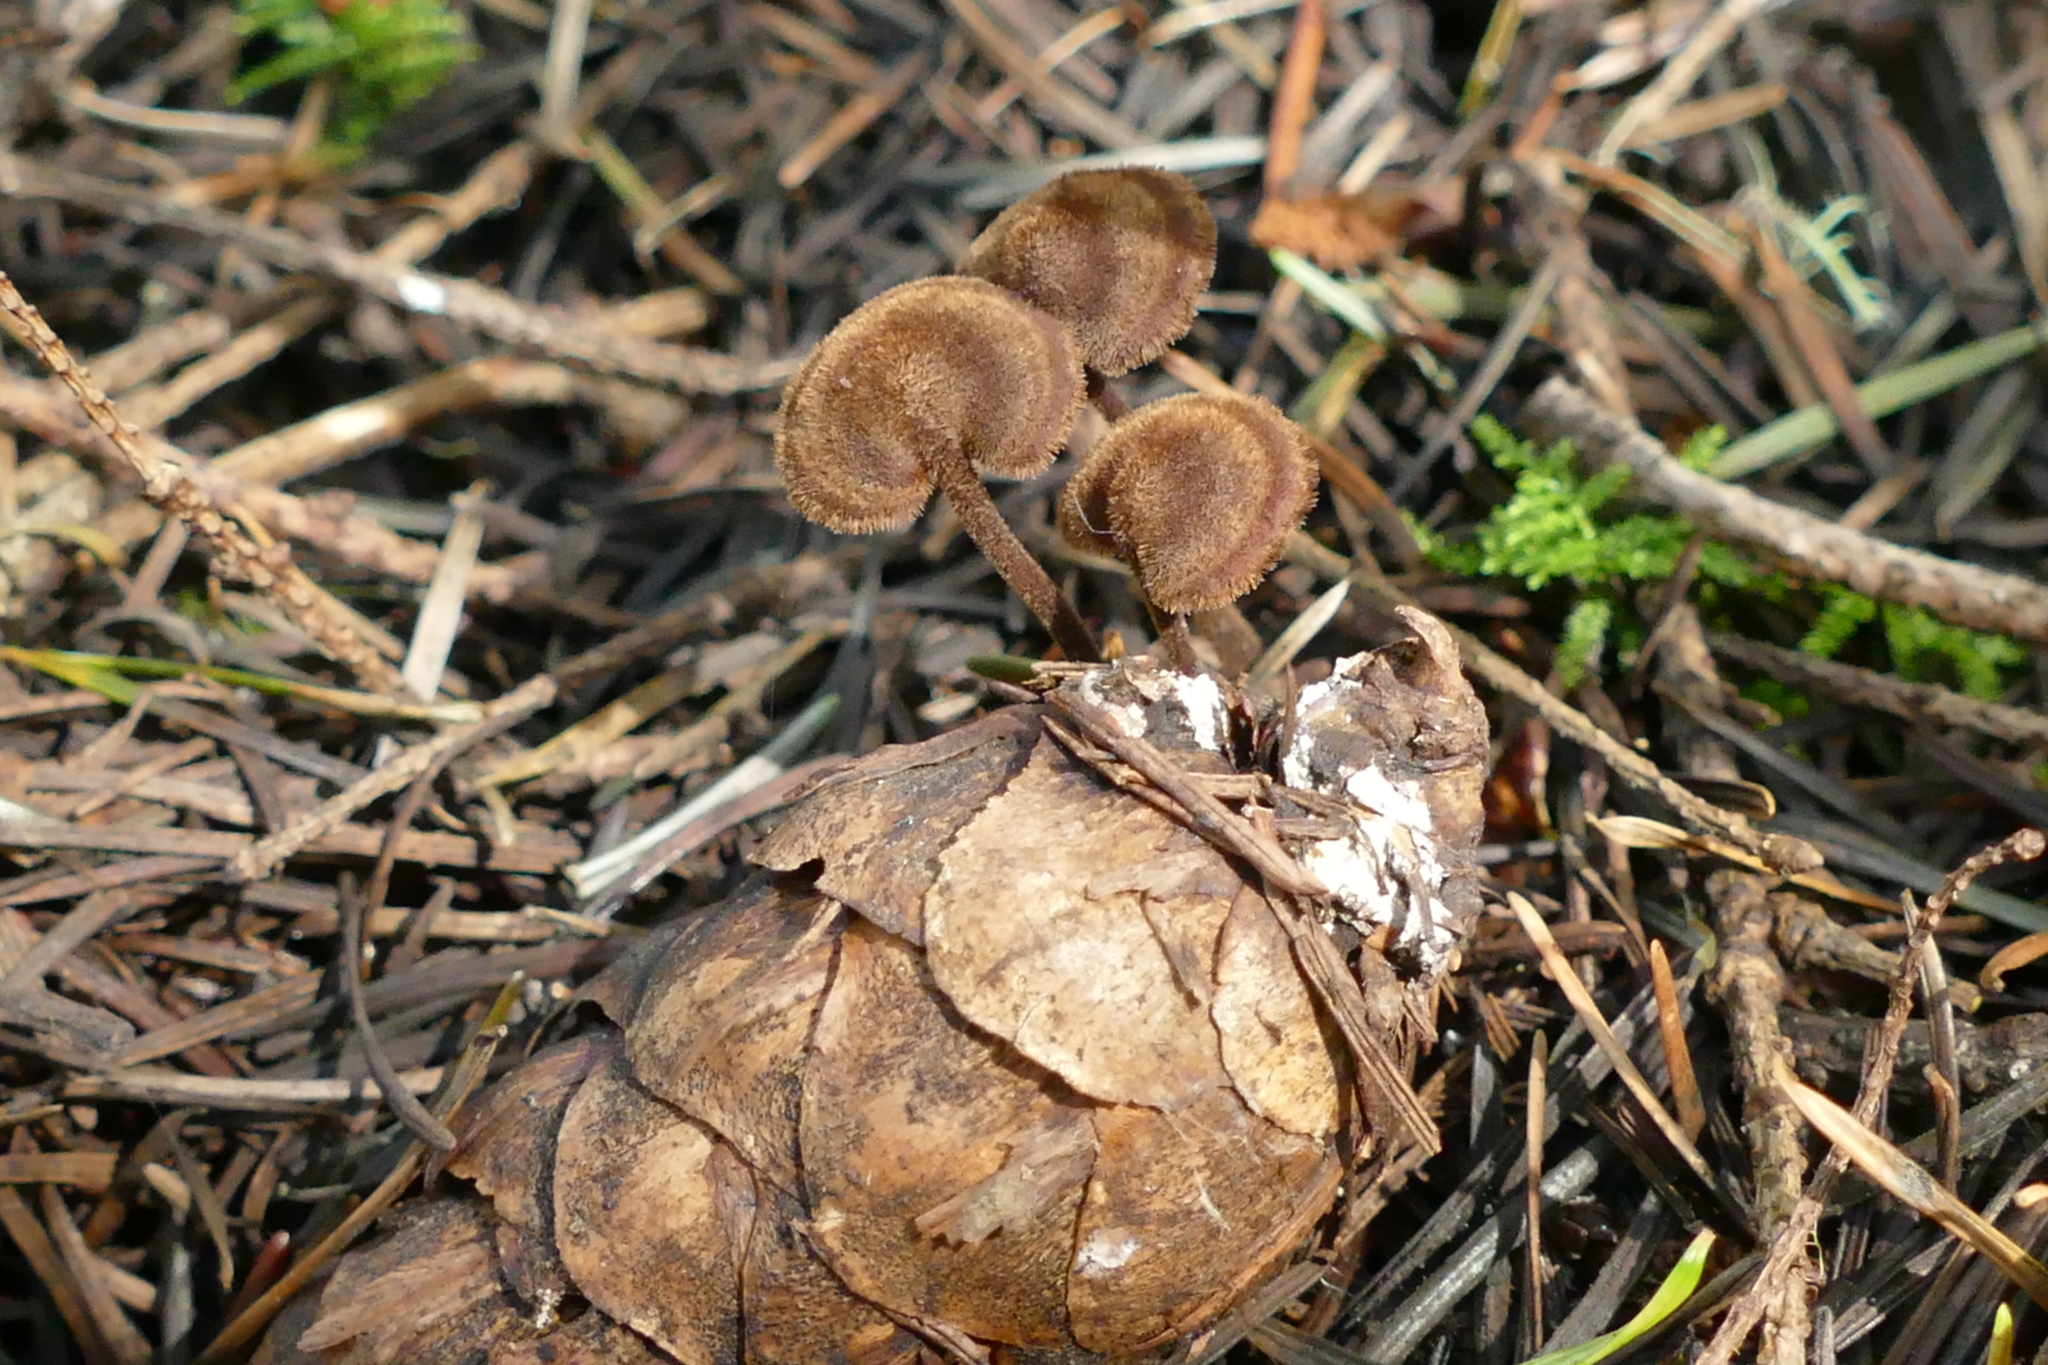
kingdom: Fungi
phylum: Basidiomycota
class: Agaricomycetes
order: Russulales
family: Auriscalpiaceae
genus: Auriscalpium
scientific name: Auriscalpium vulgare
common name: Earpick fungus
